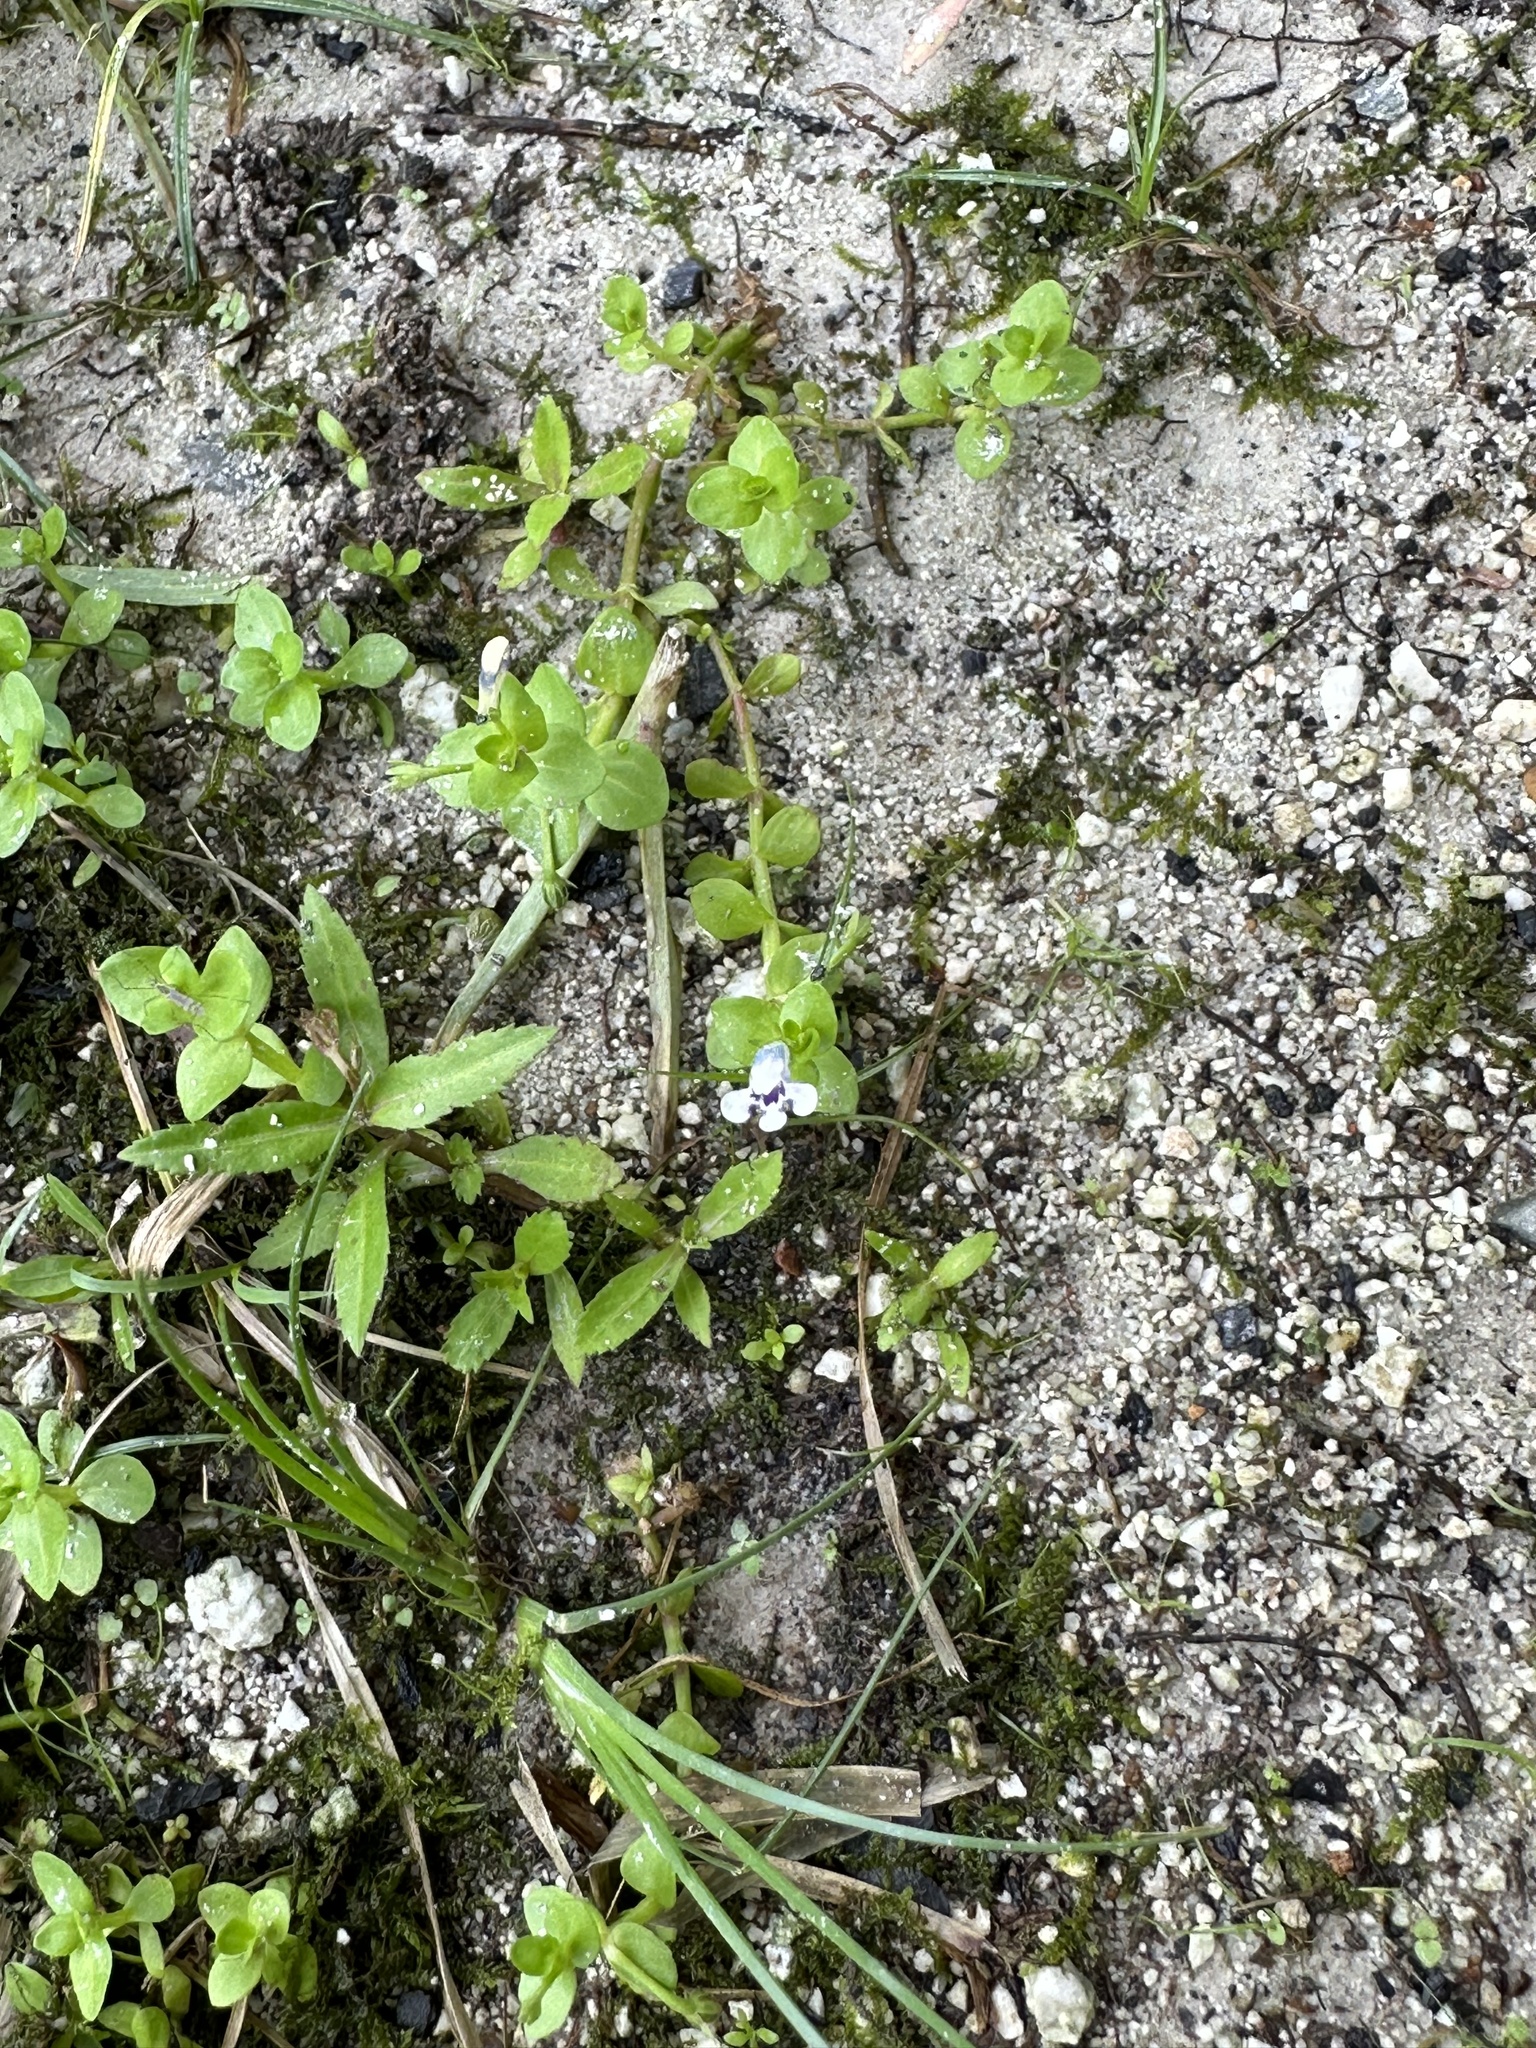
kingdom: Plantae
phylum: Tracheophyta
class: Magnoliopsida
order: Lamiales
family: Linderniaceae
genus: Lindernia
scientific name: Lindernia rotundifolia
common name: Baby’s tears
